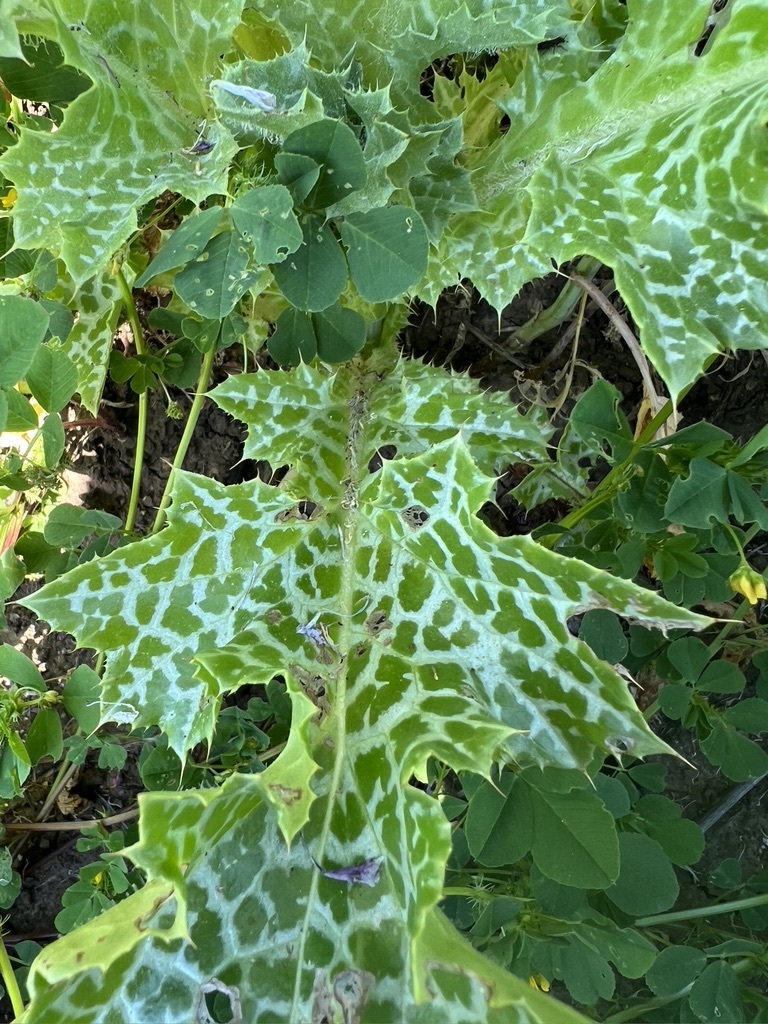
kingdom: Plantae
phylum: Tracheophyta
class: Magnoliopsida
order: Asterales
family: Asteraceae
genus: Silybum
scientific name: Silybum marianum
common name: Milk thistle
